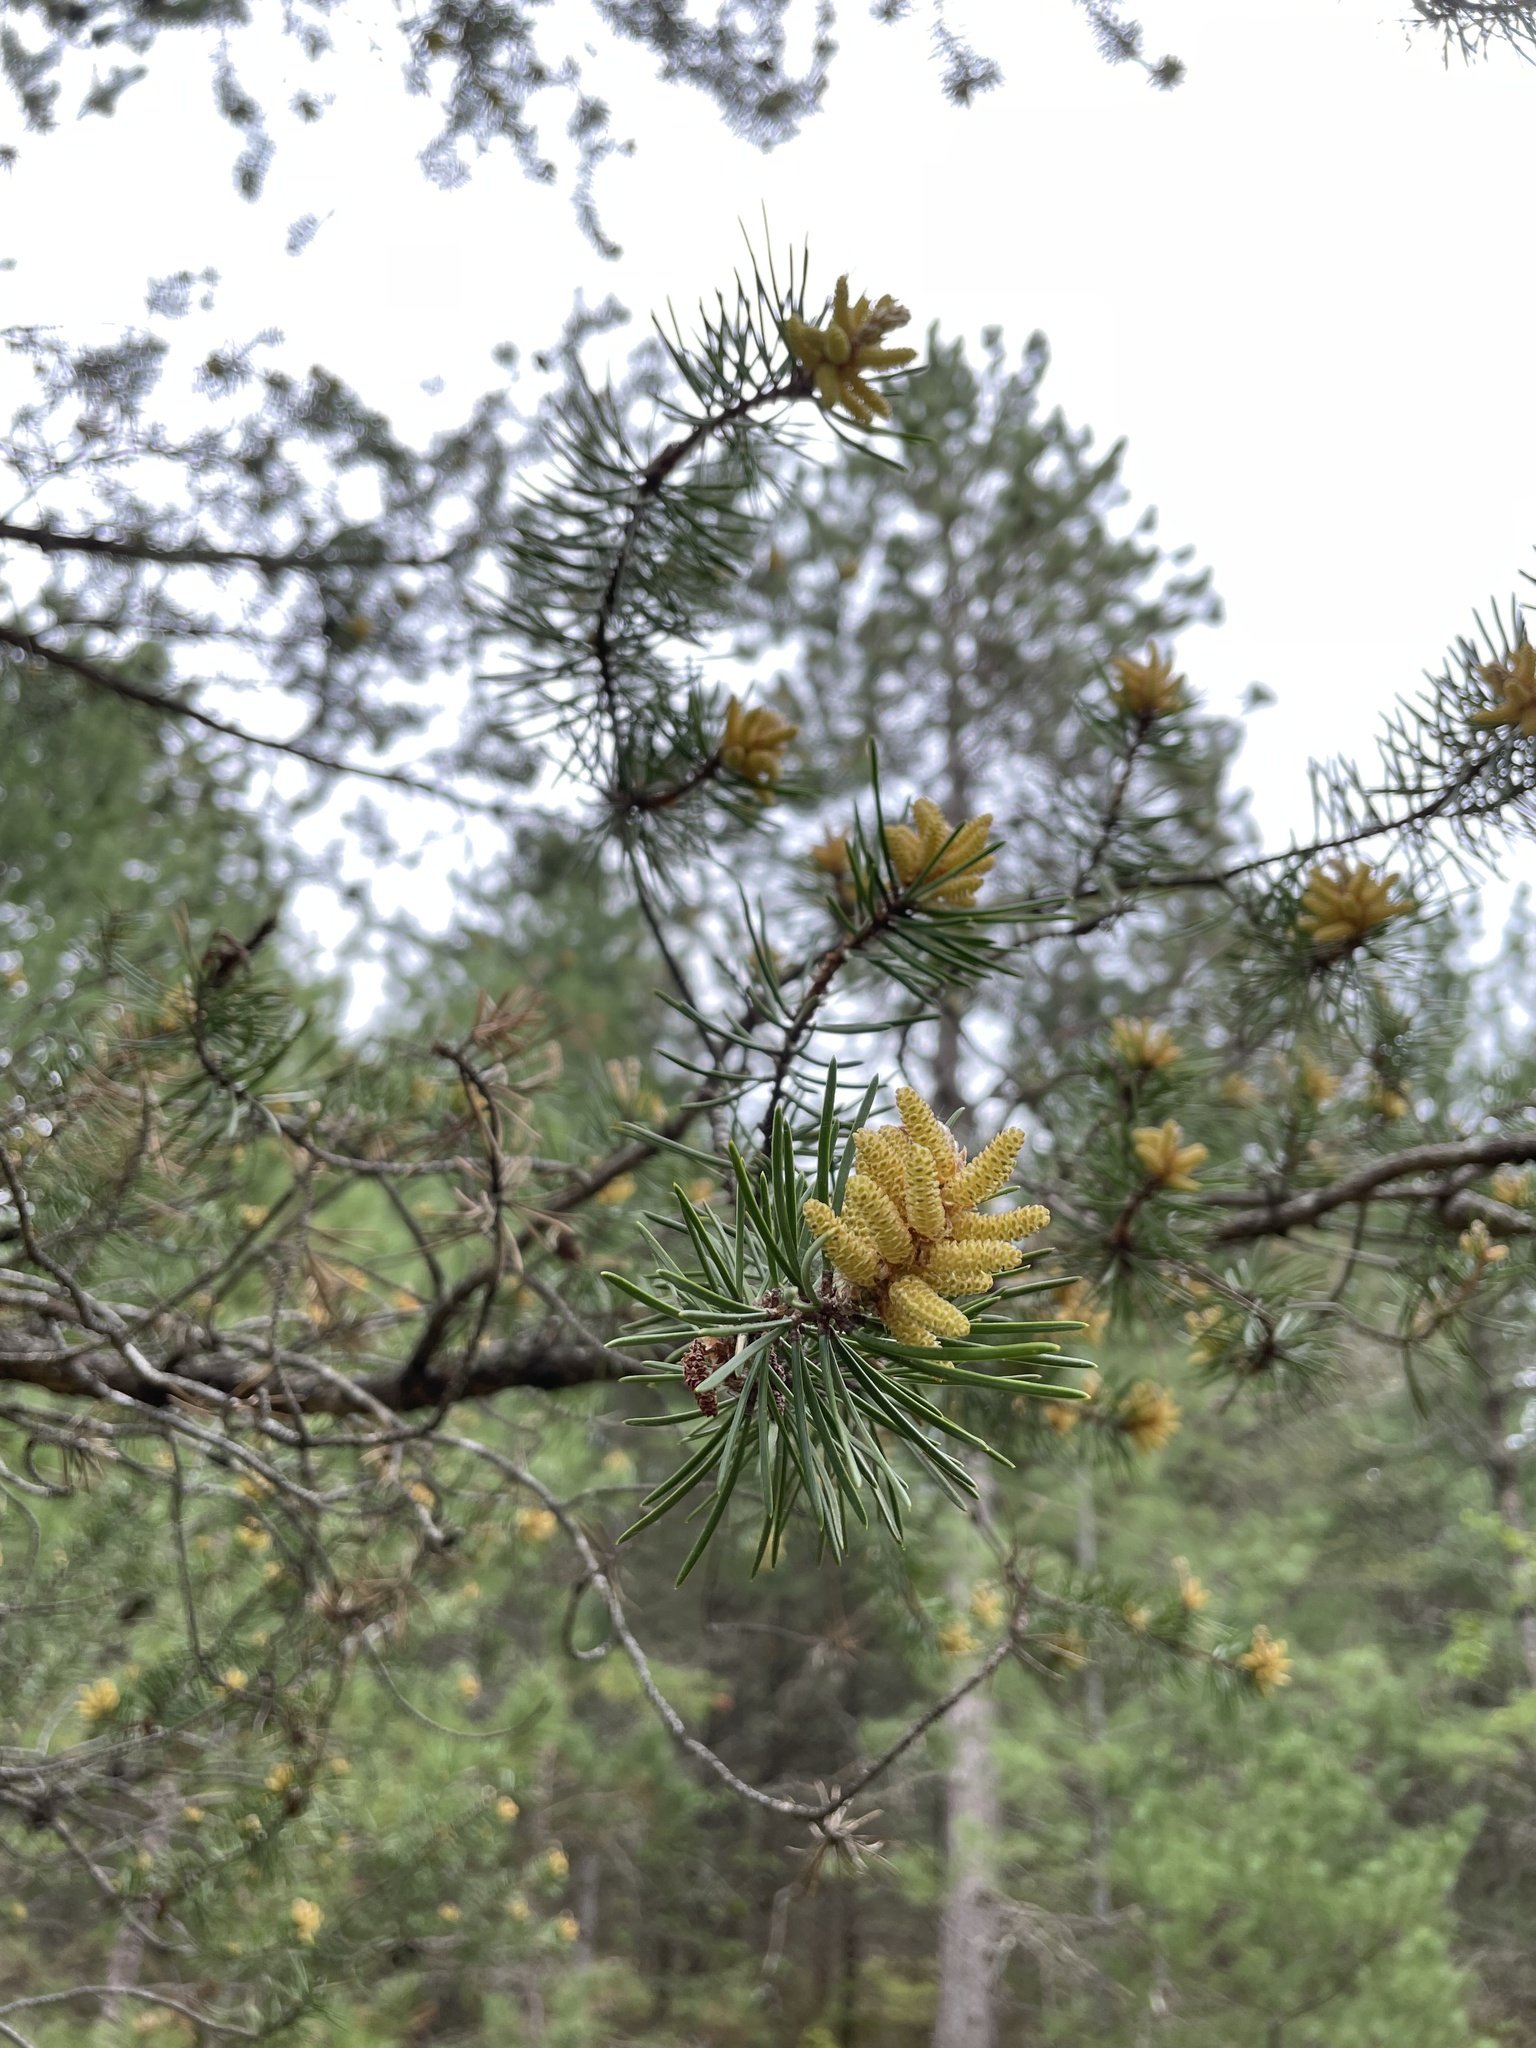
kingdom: Plantae
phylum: Tracheophyta
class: Pinopsida
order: Pinales
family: Pinaceae
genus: Pinus
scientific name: Pinus banksiana
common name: Jack pine
